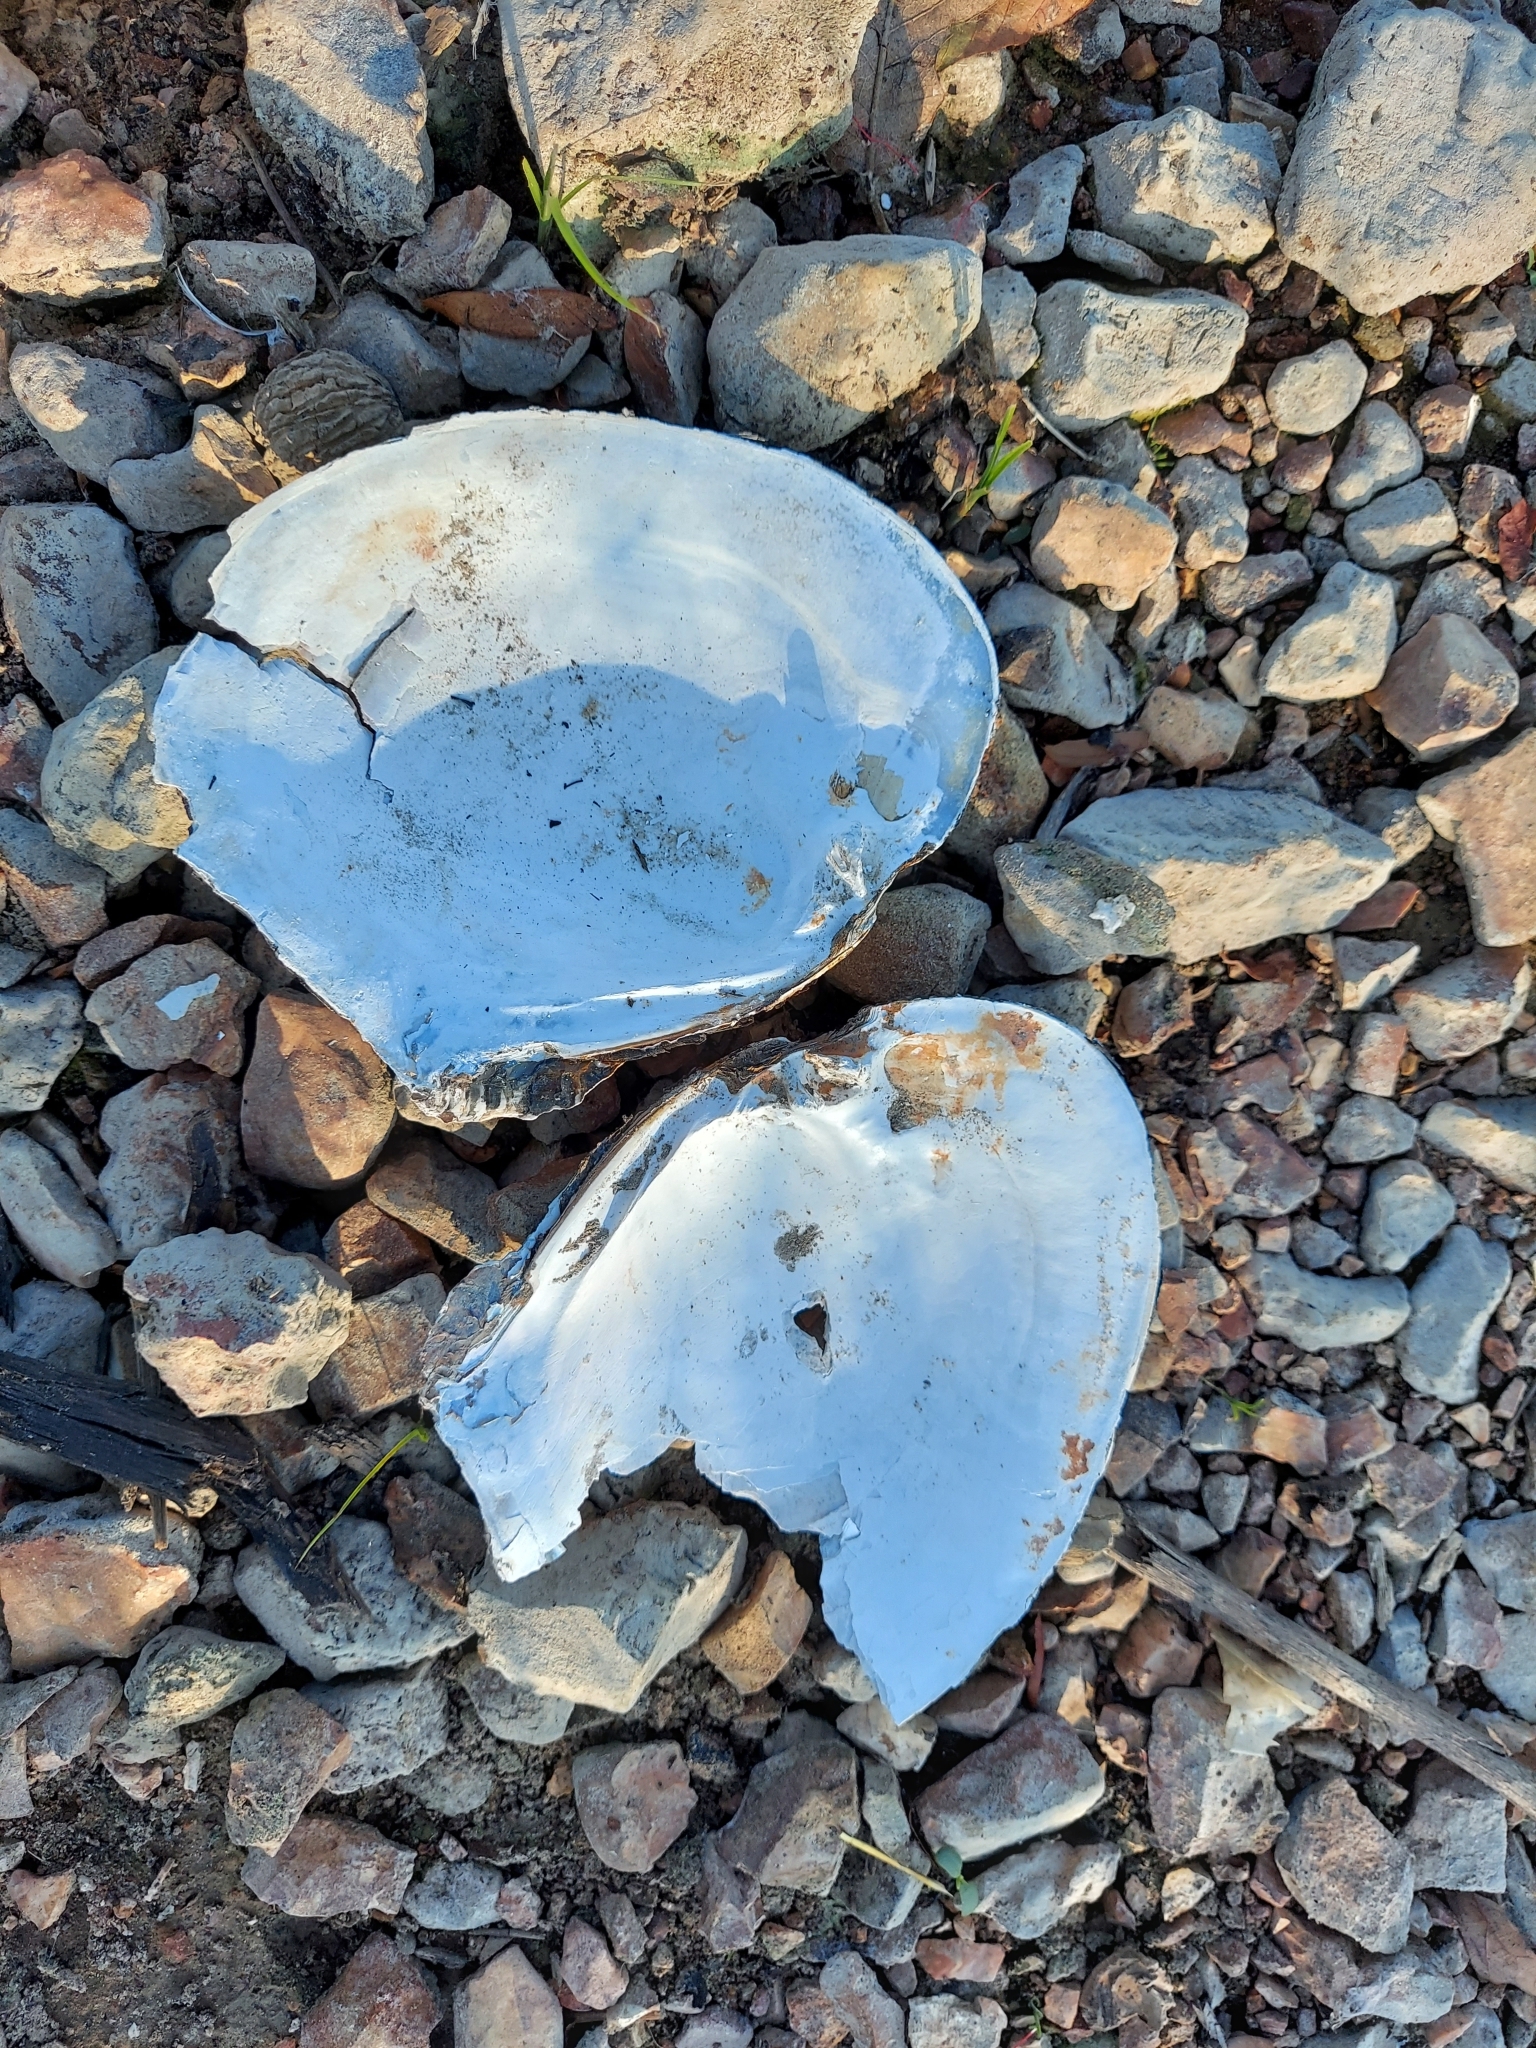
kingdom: Animalia
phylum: Mollusca
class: Bivalvia
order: Unionida
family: Unionidae
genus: Lasmigona
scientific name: Lasmigona complanata
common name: White heelsplitter
